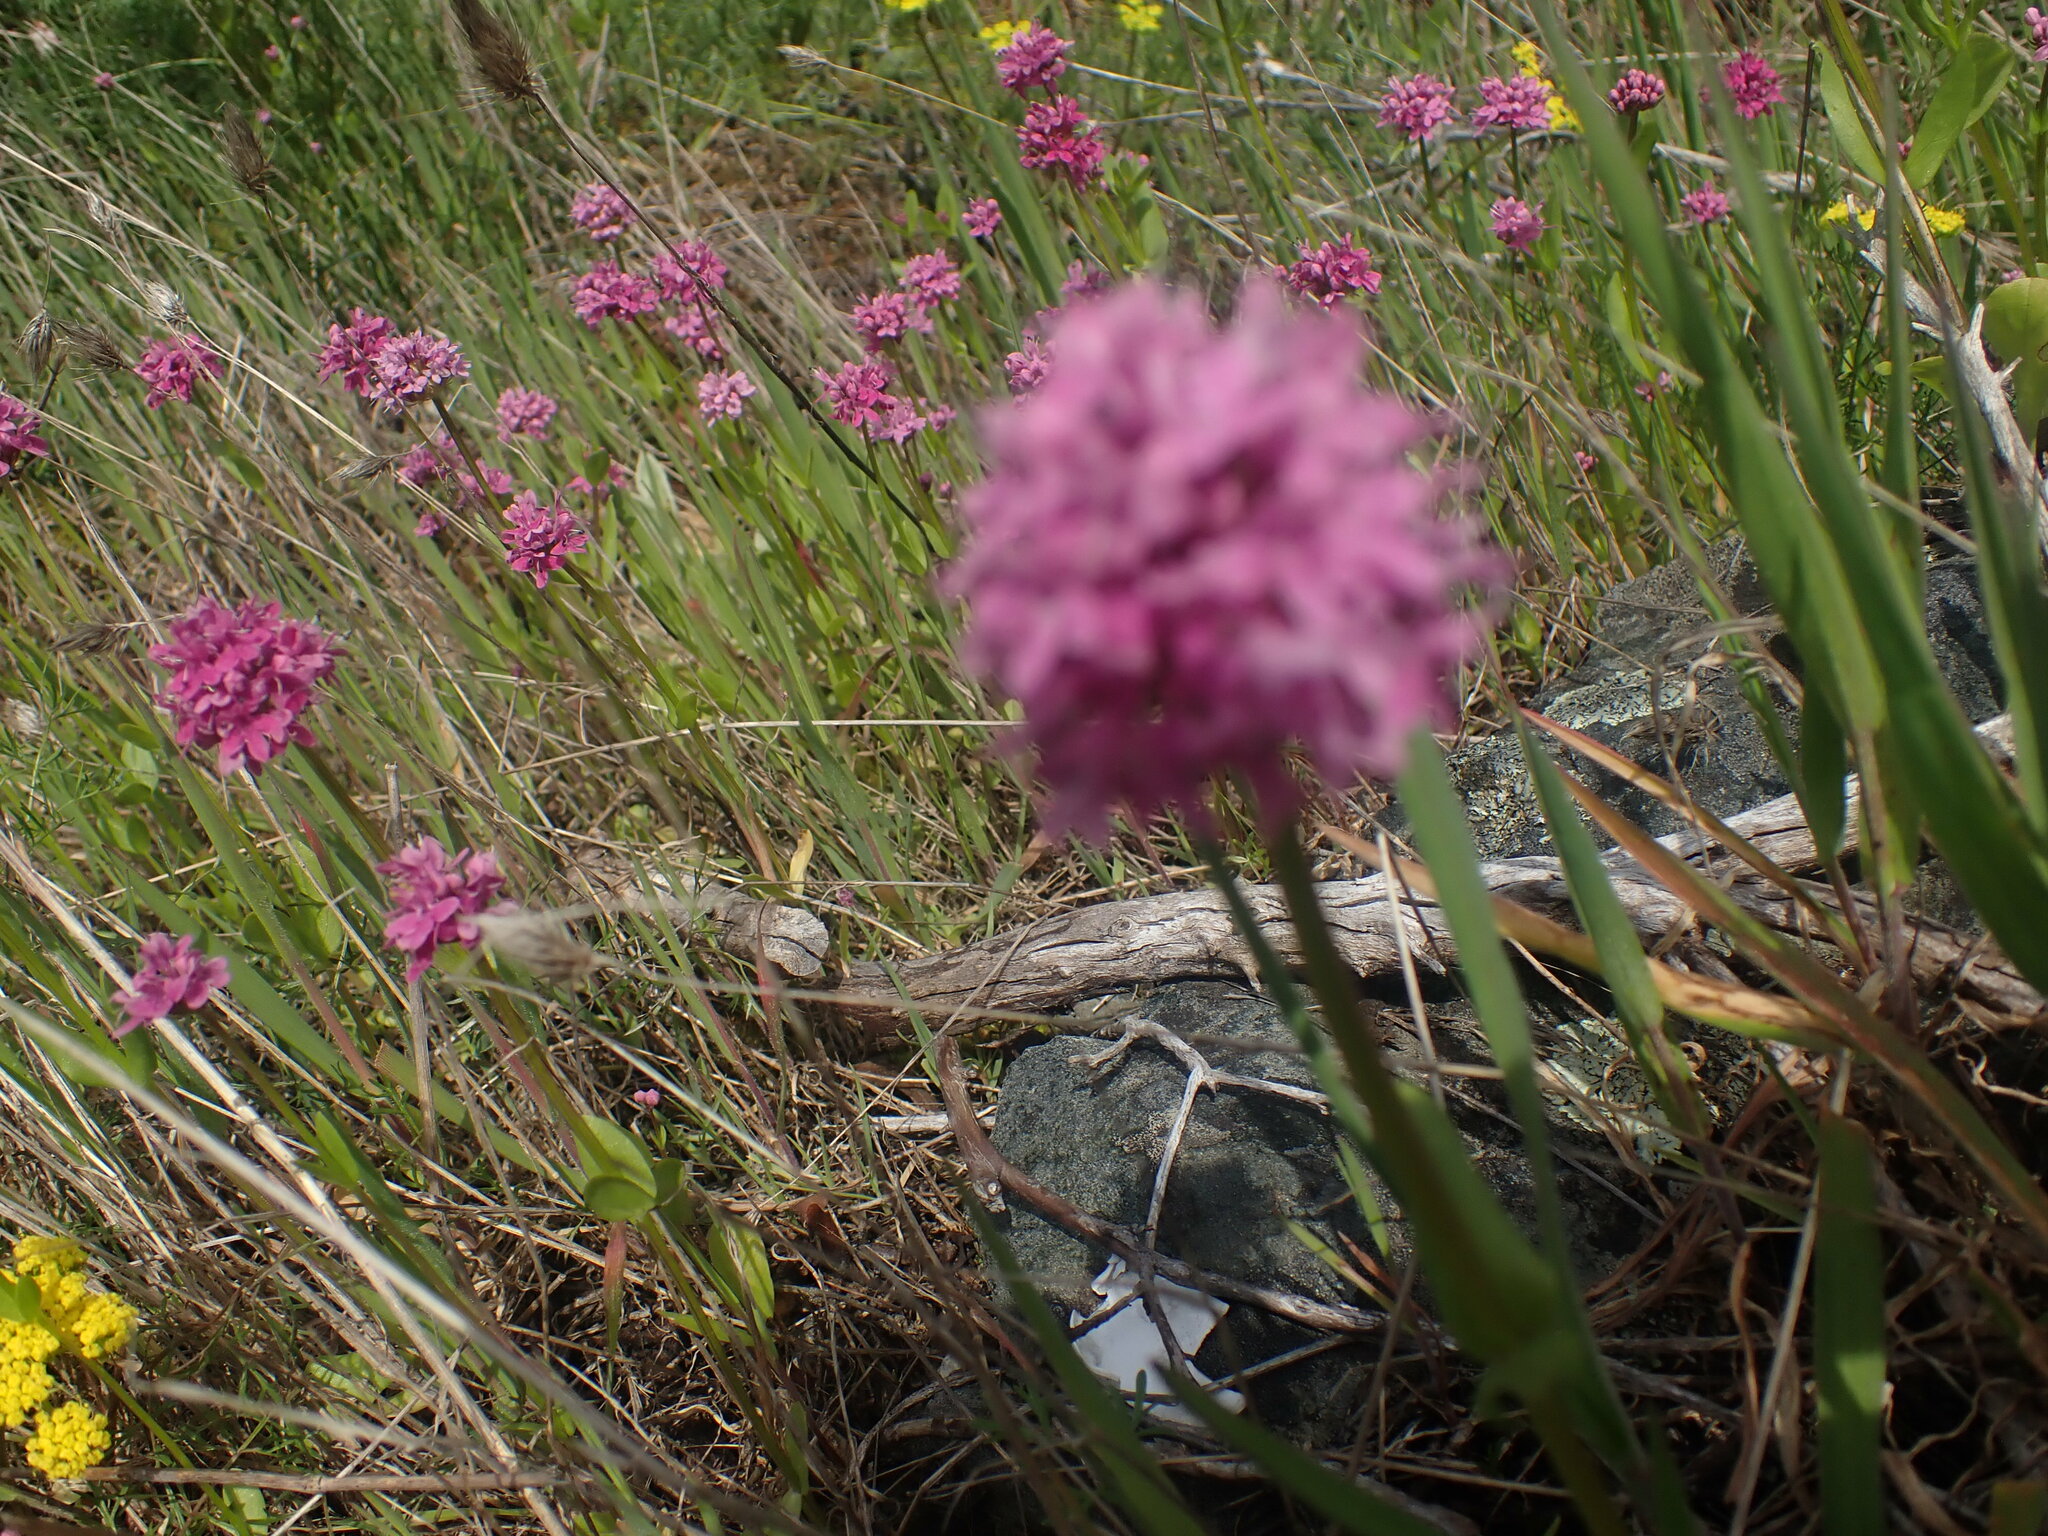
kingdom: Plantae
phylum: Tracheophyta
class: Magnoliopsida
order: Dipsacales
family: Caprifoliaceae
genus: Plectritis
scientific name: Plectritis congesta
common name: Pink plectritis
